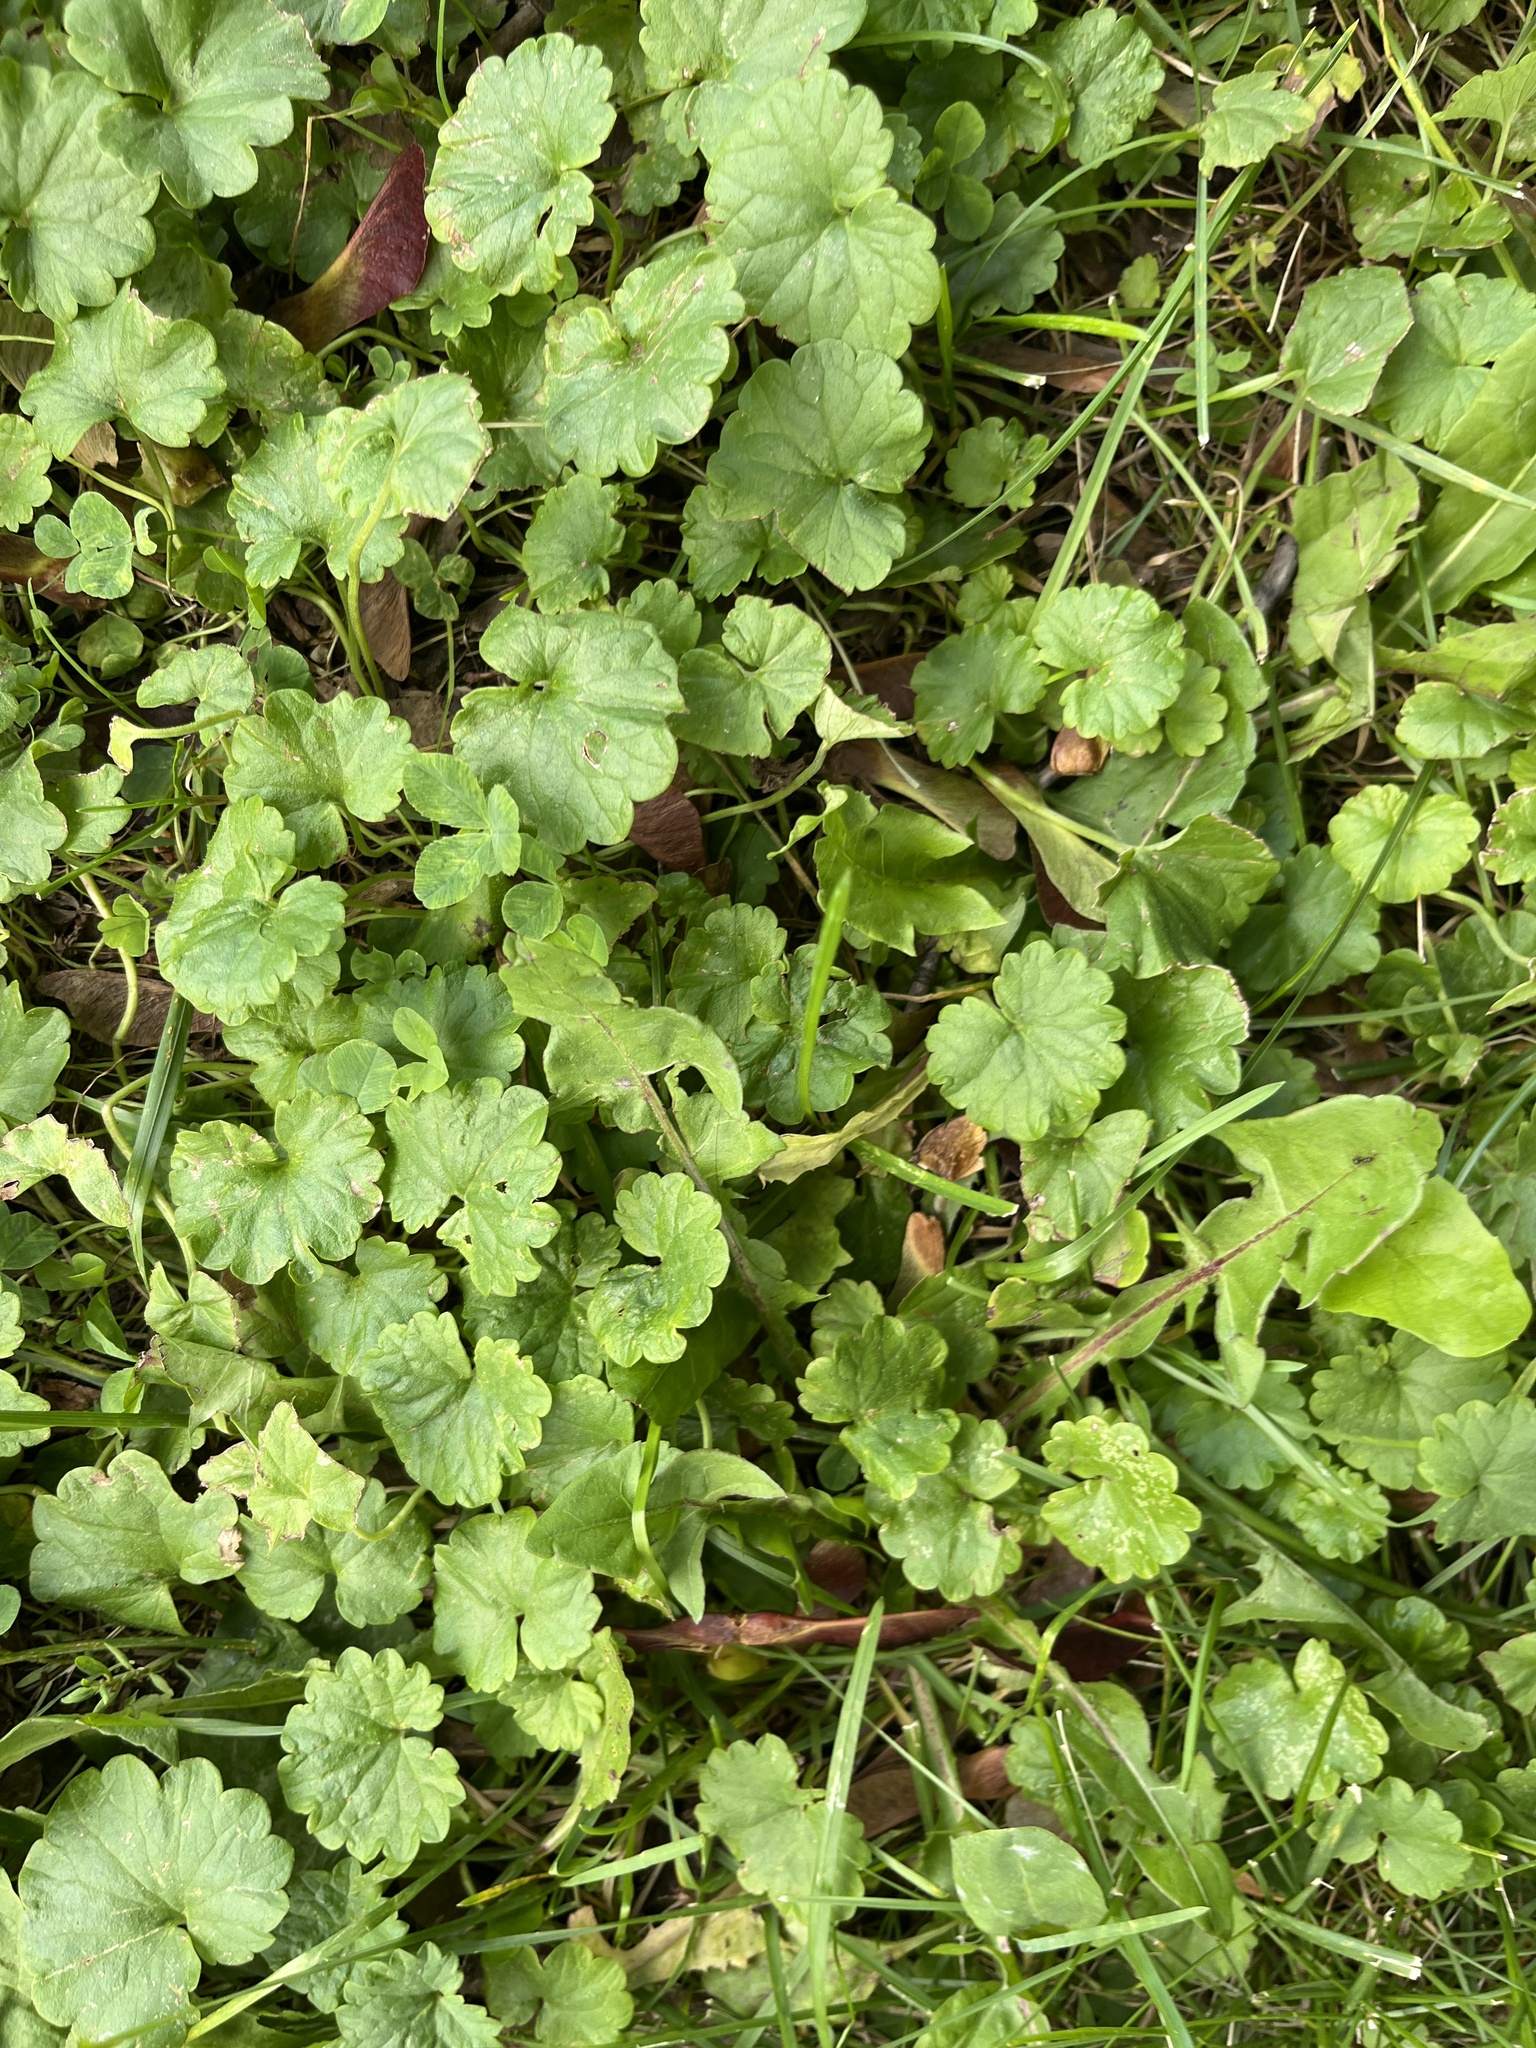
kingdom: Plantae
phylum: Tracheophyta
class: Magnoliopsida
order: Lamiales
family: Lamiaceae
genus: Glechoma
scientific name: Glechoma hederacea
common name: Ground ivy
